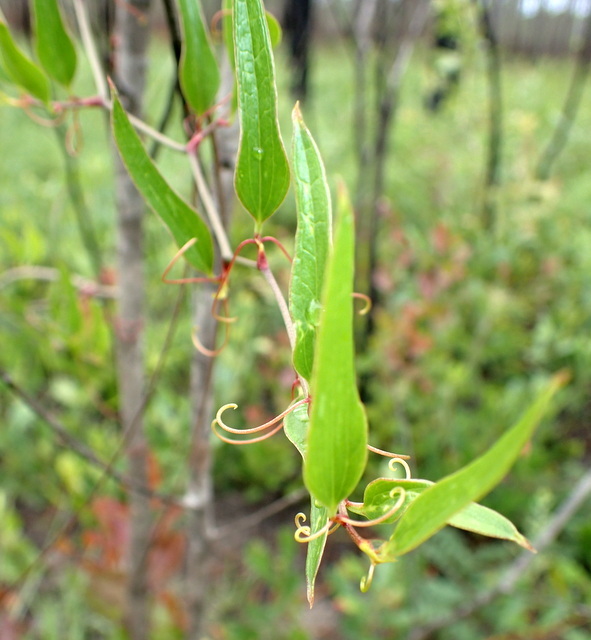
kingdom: Plantae
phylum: Tracheophyta
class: Liliopsida
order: Liliales
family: Smilacaceae
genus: Smilax
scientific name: Smilax auriculata
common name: Wild bamboo
